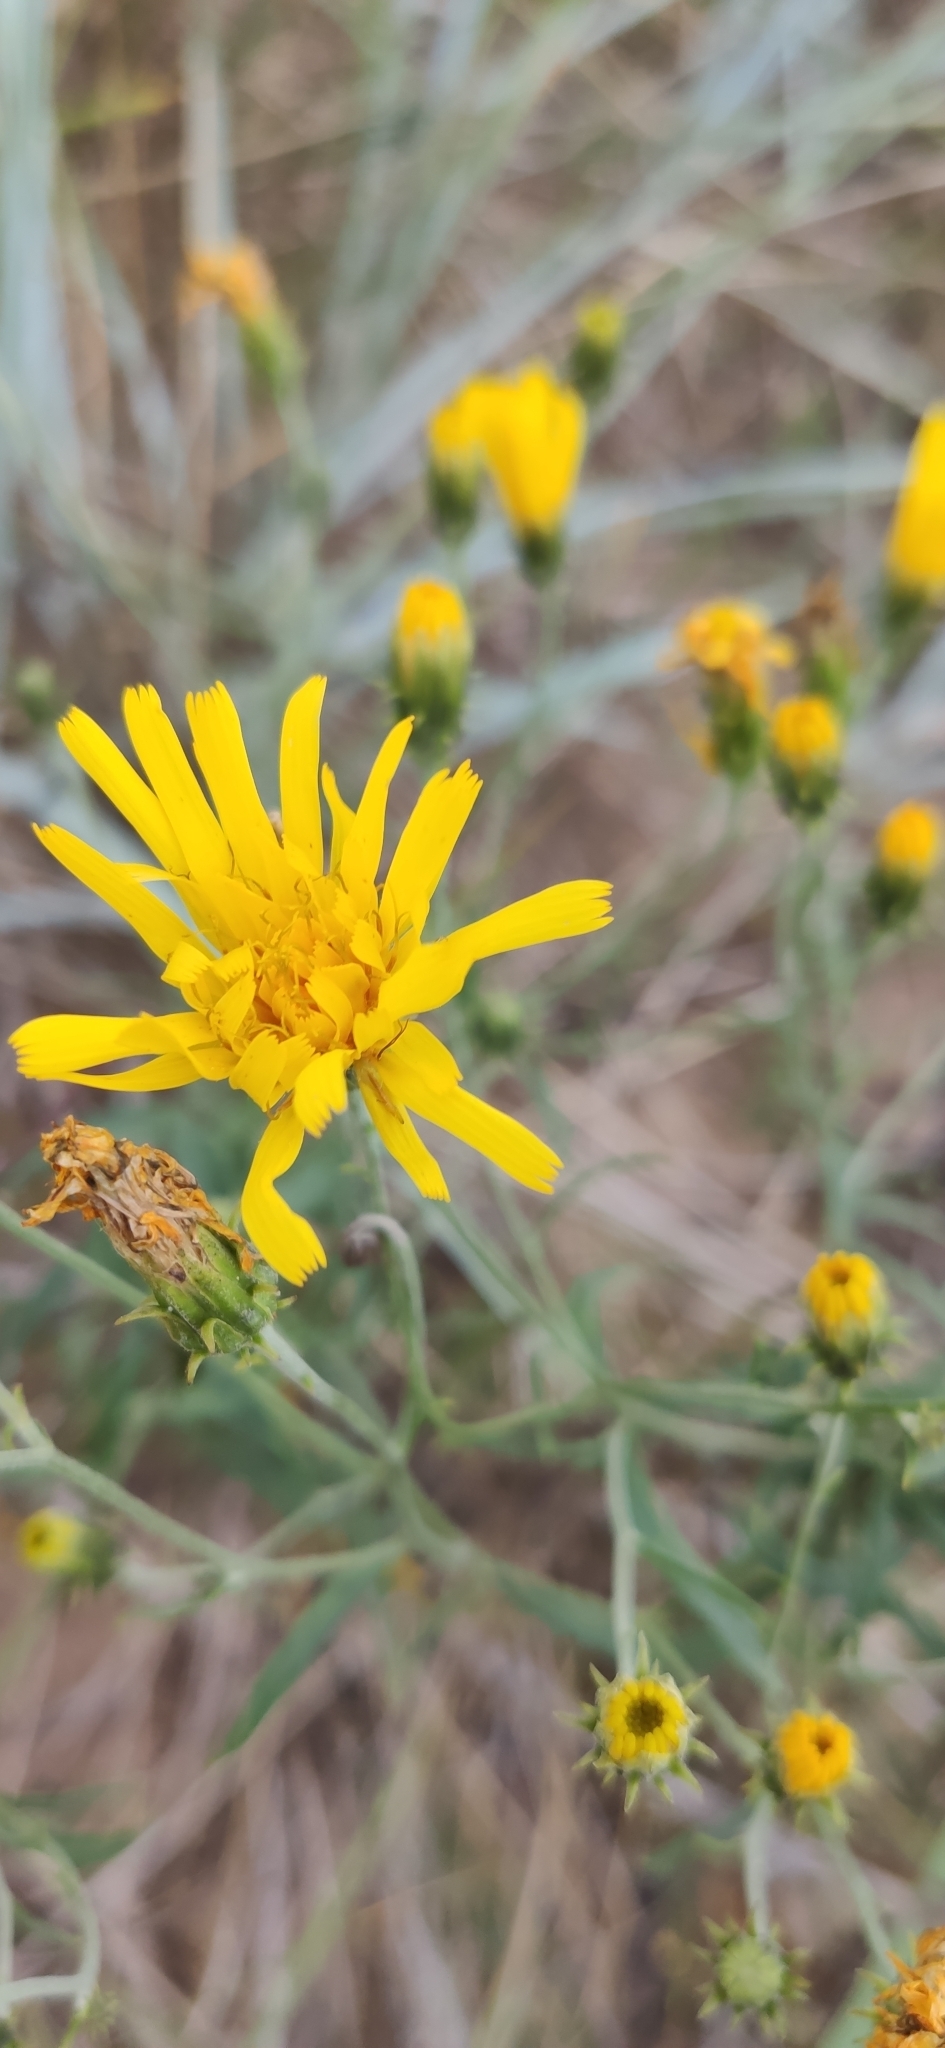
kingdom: Plantae
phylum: Tracheophyta
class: Magnoliopsida
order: Asterales
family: Asteraceae
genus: Hieracium
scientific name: Hieracium umbellatum
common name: Northern hawkweed
